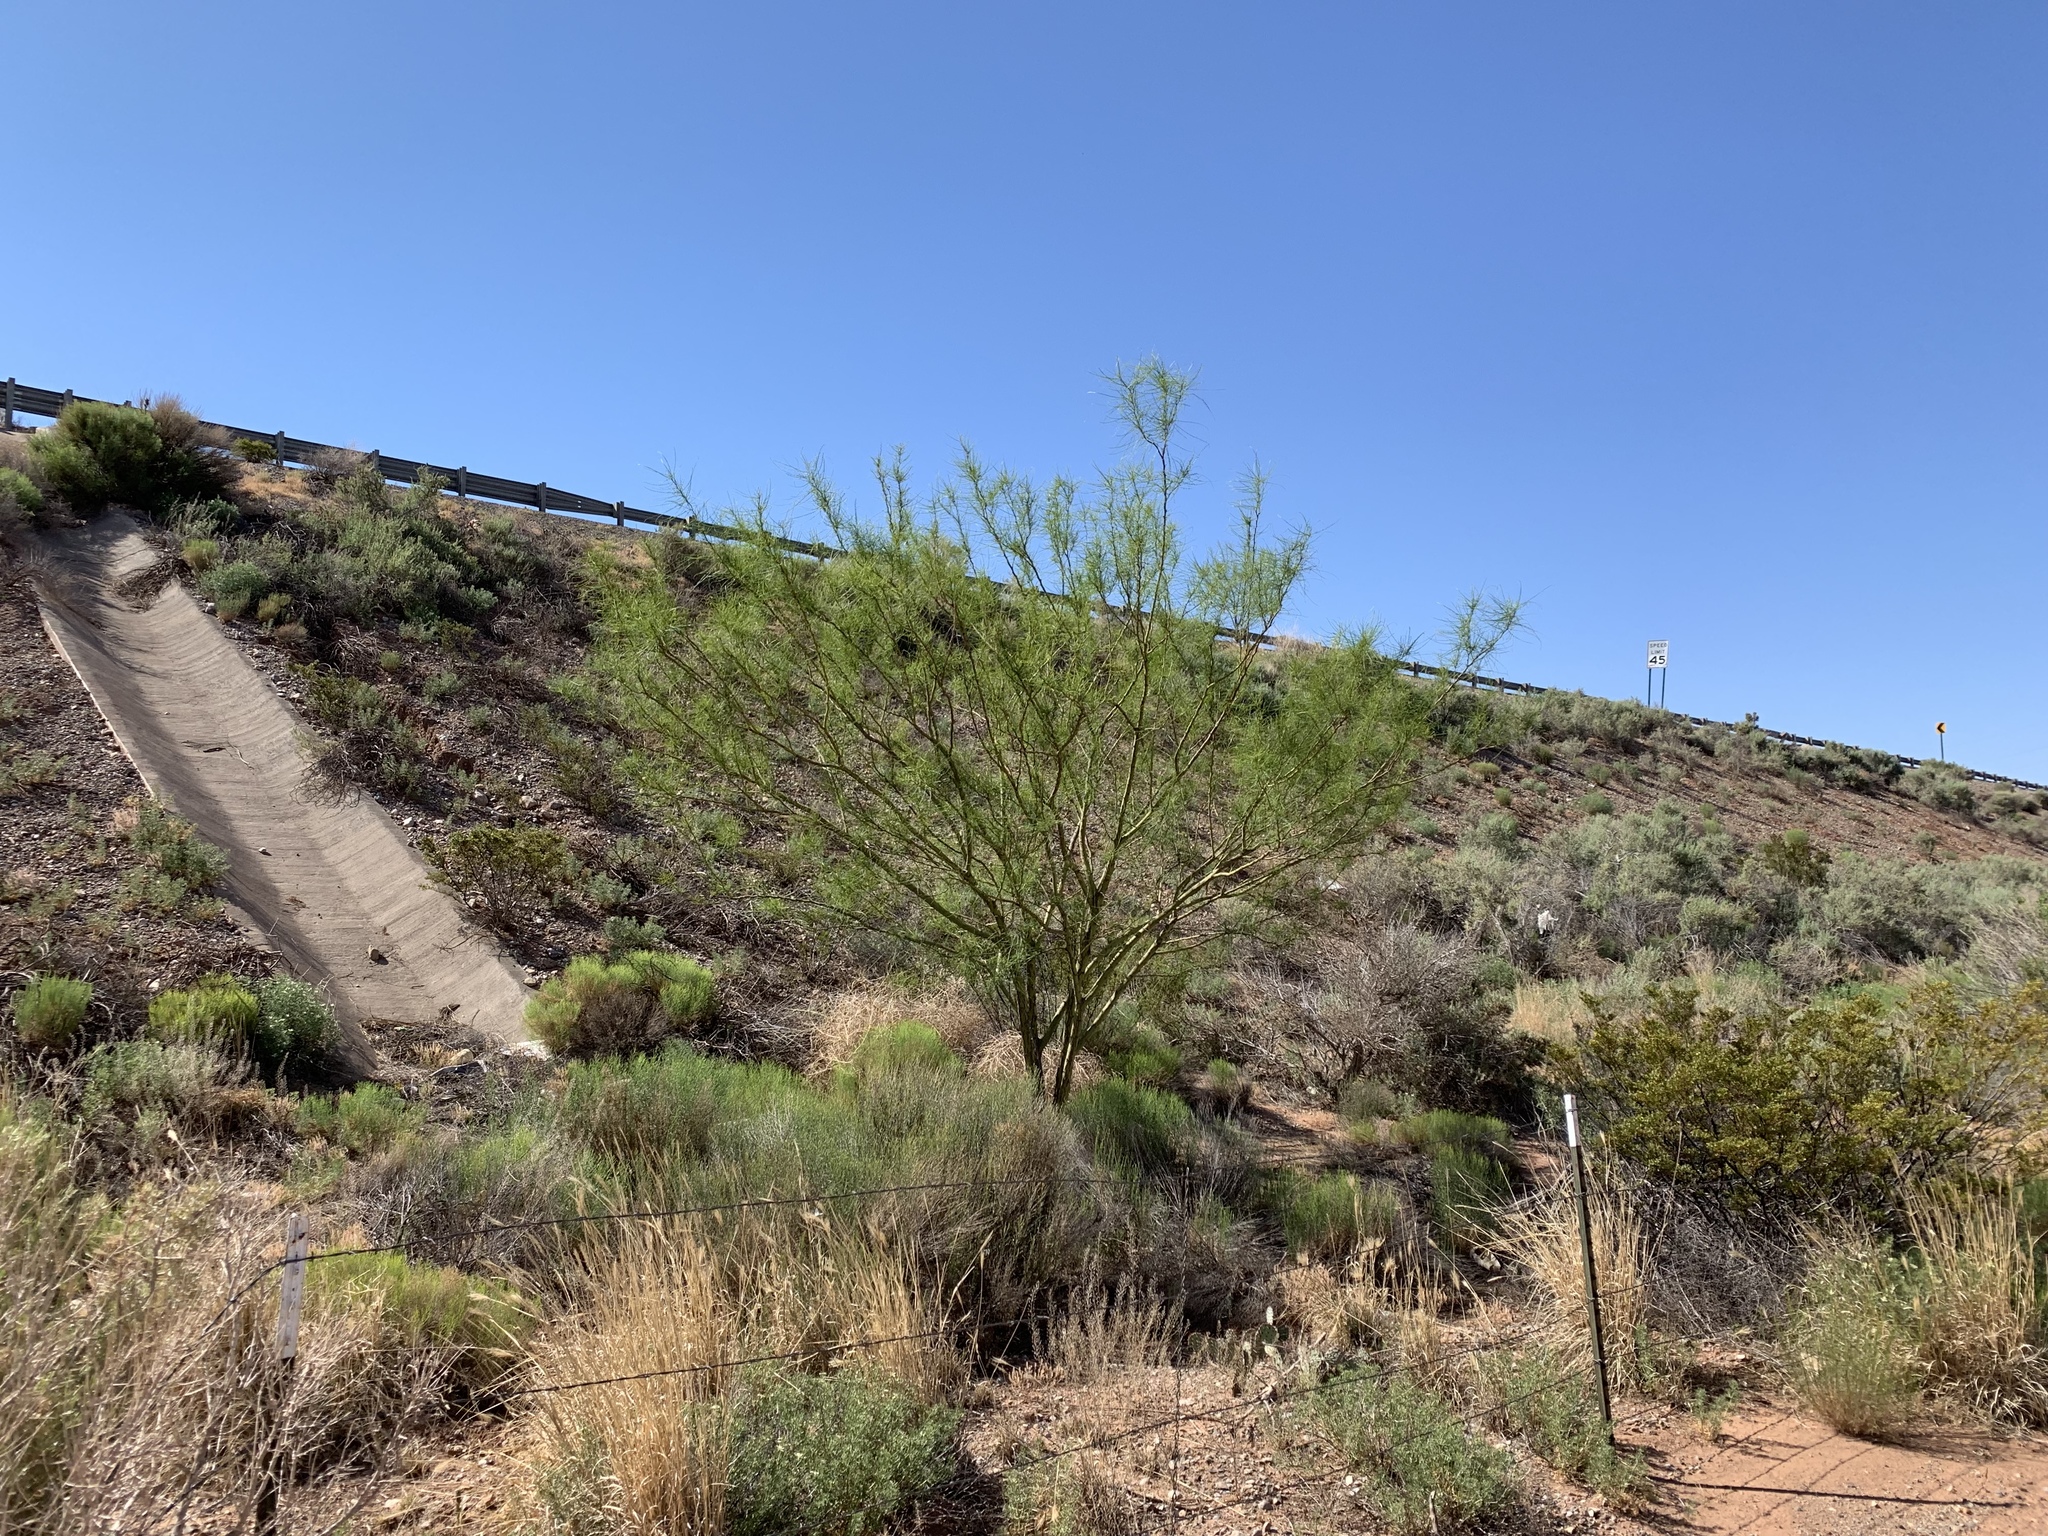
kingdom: Plantae
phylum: Tracheophyta
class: Magnoliopsida
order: Fabales
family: Fabaceae
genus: Parkinsonia
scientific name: Parkinsonia aculeata
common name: Jerusalem thorn
